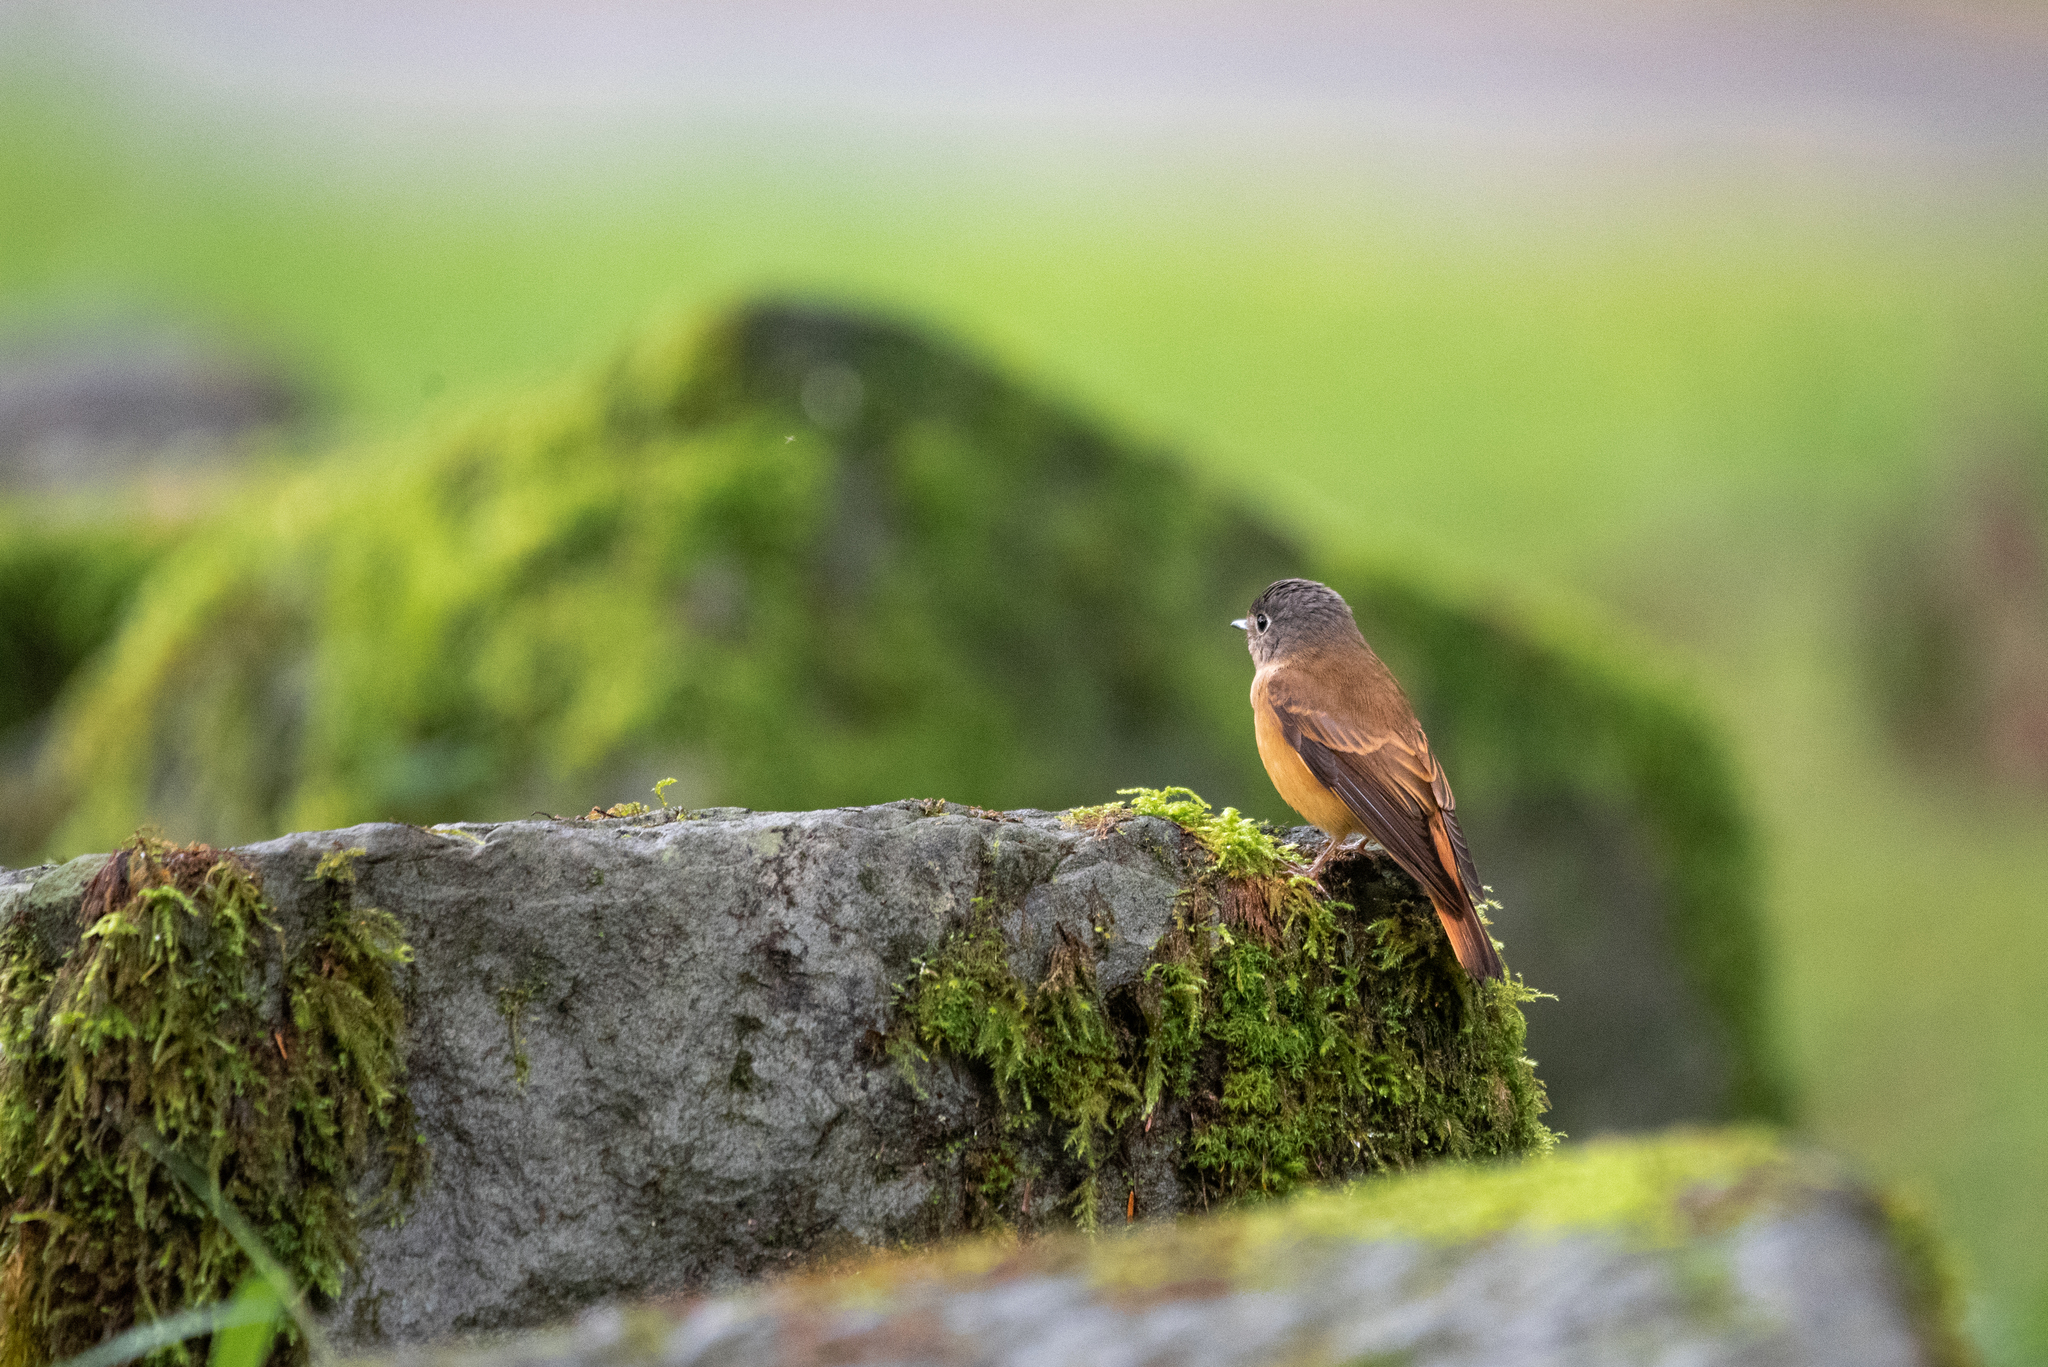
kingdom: Animalia
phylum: Chordata
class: Aves
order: Passeriformes
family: Muscicapidae
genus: Muscicapa
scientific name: Muscicapa ferruginea
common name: Ferruginous flycatcher
